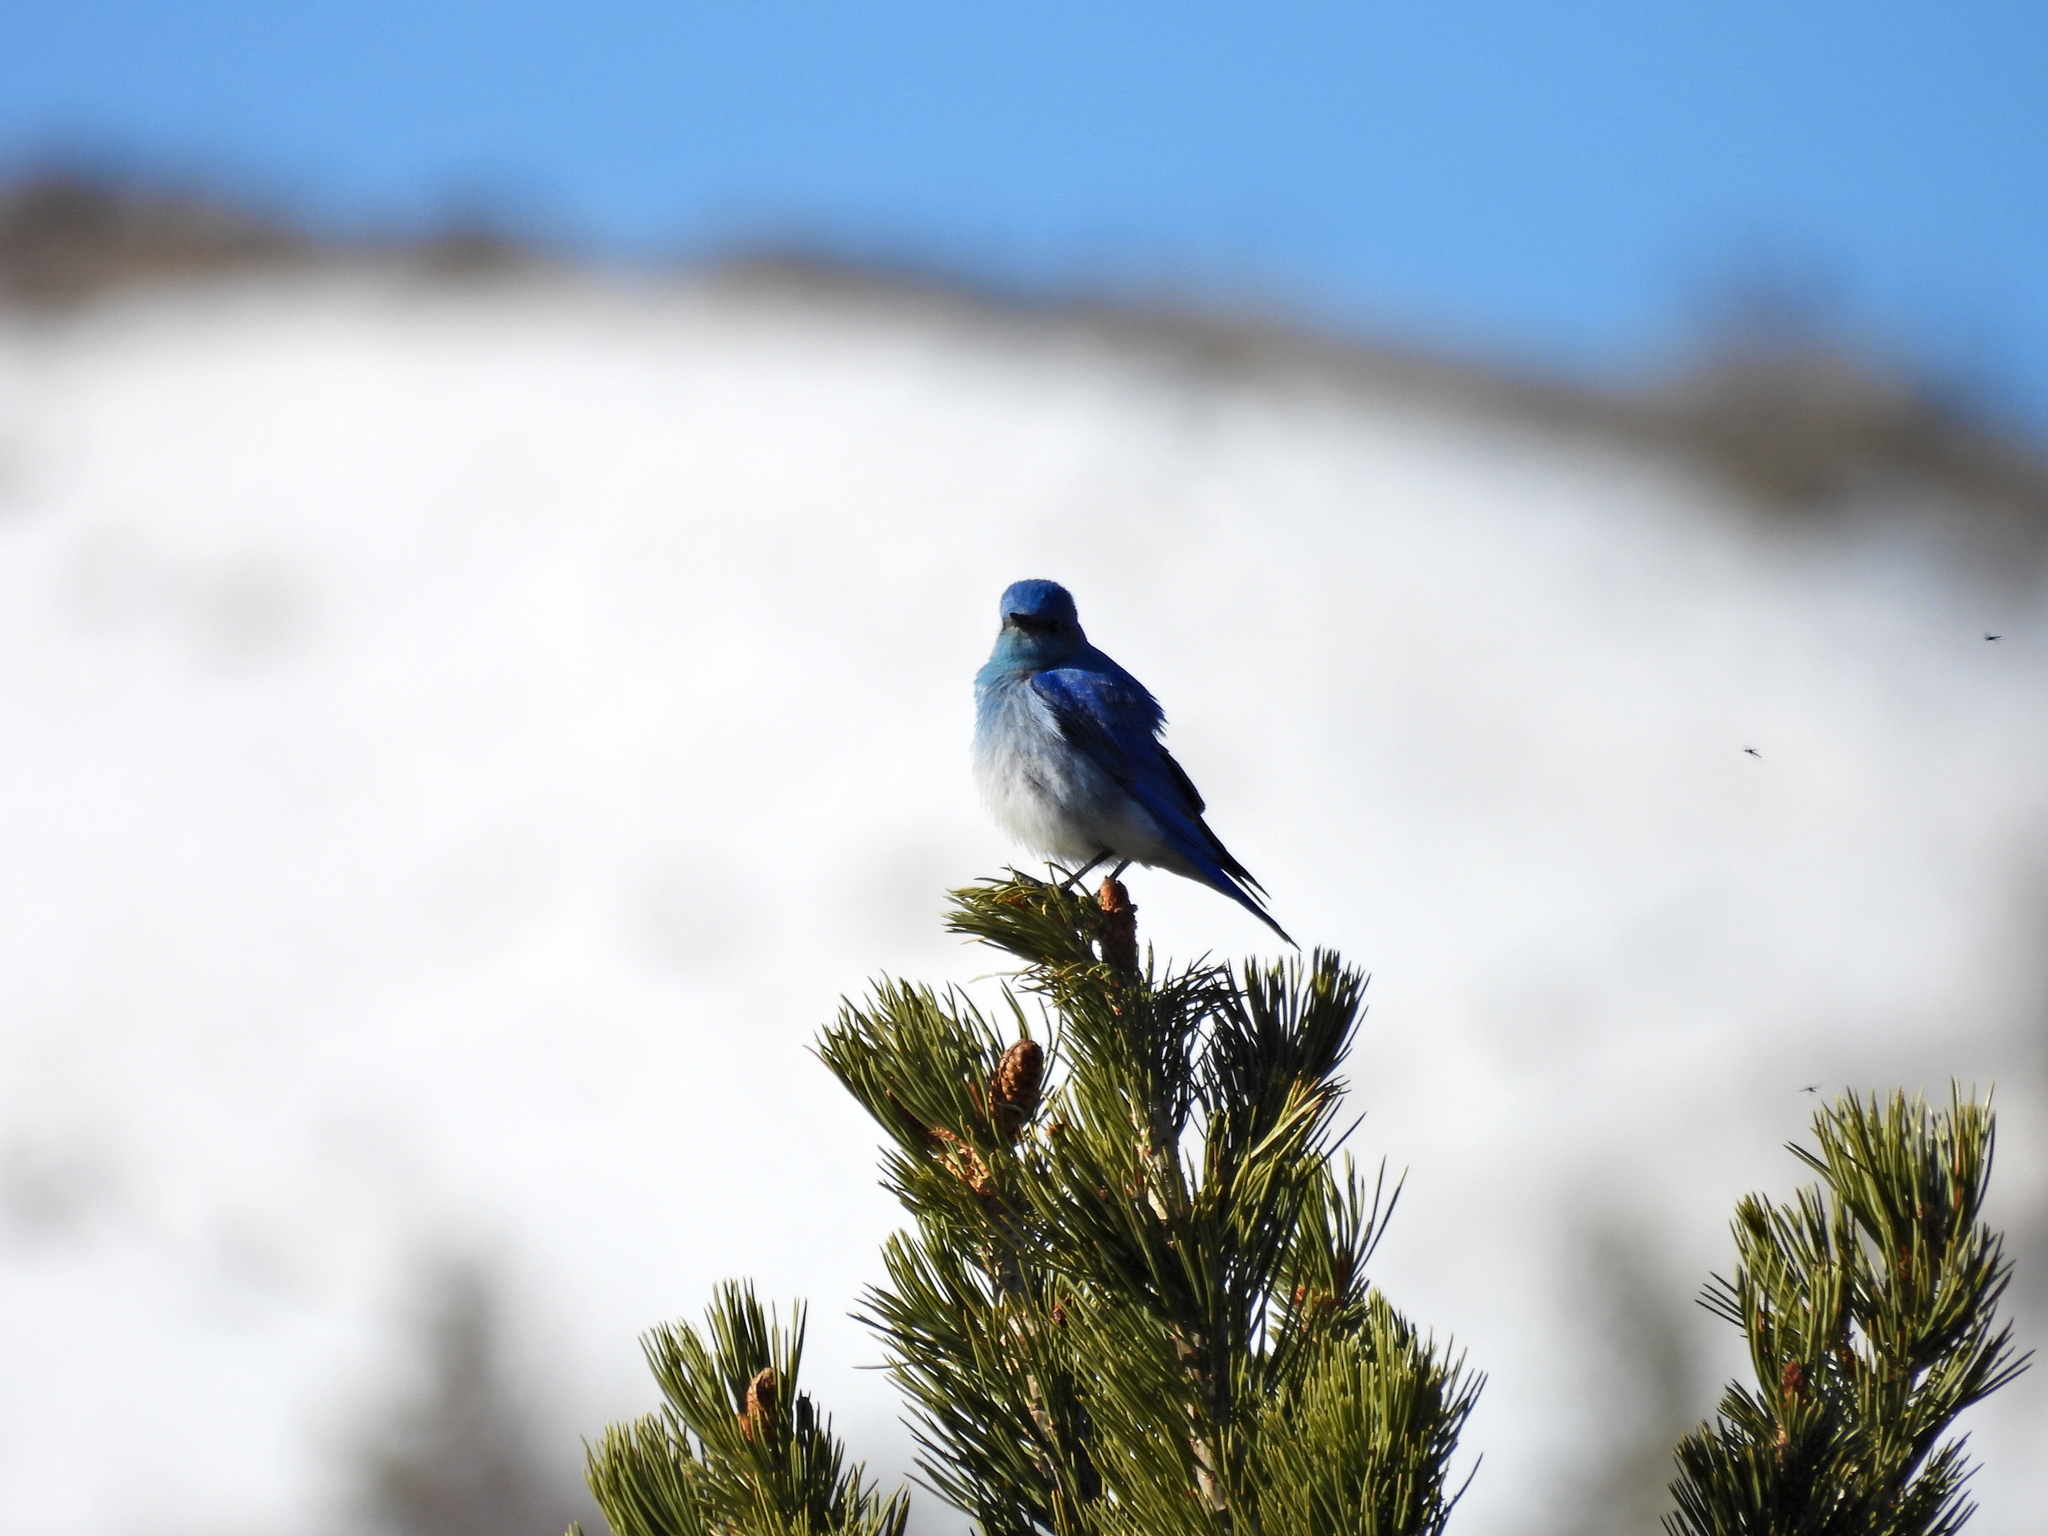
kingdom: Animalia
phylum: Chordata
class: Aves
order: Passeriformes
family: Turdidae
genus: Sialia
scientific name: Sialia currucoides
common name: Mountain bluebird
